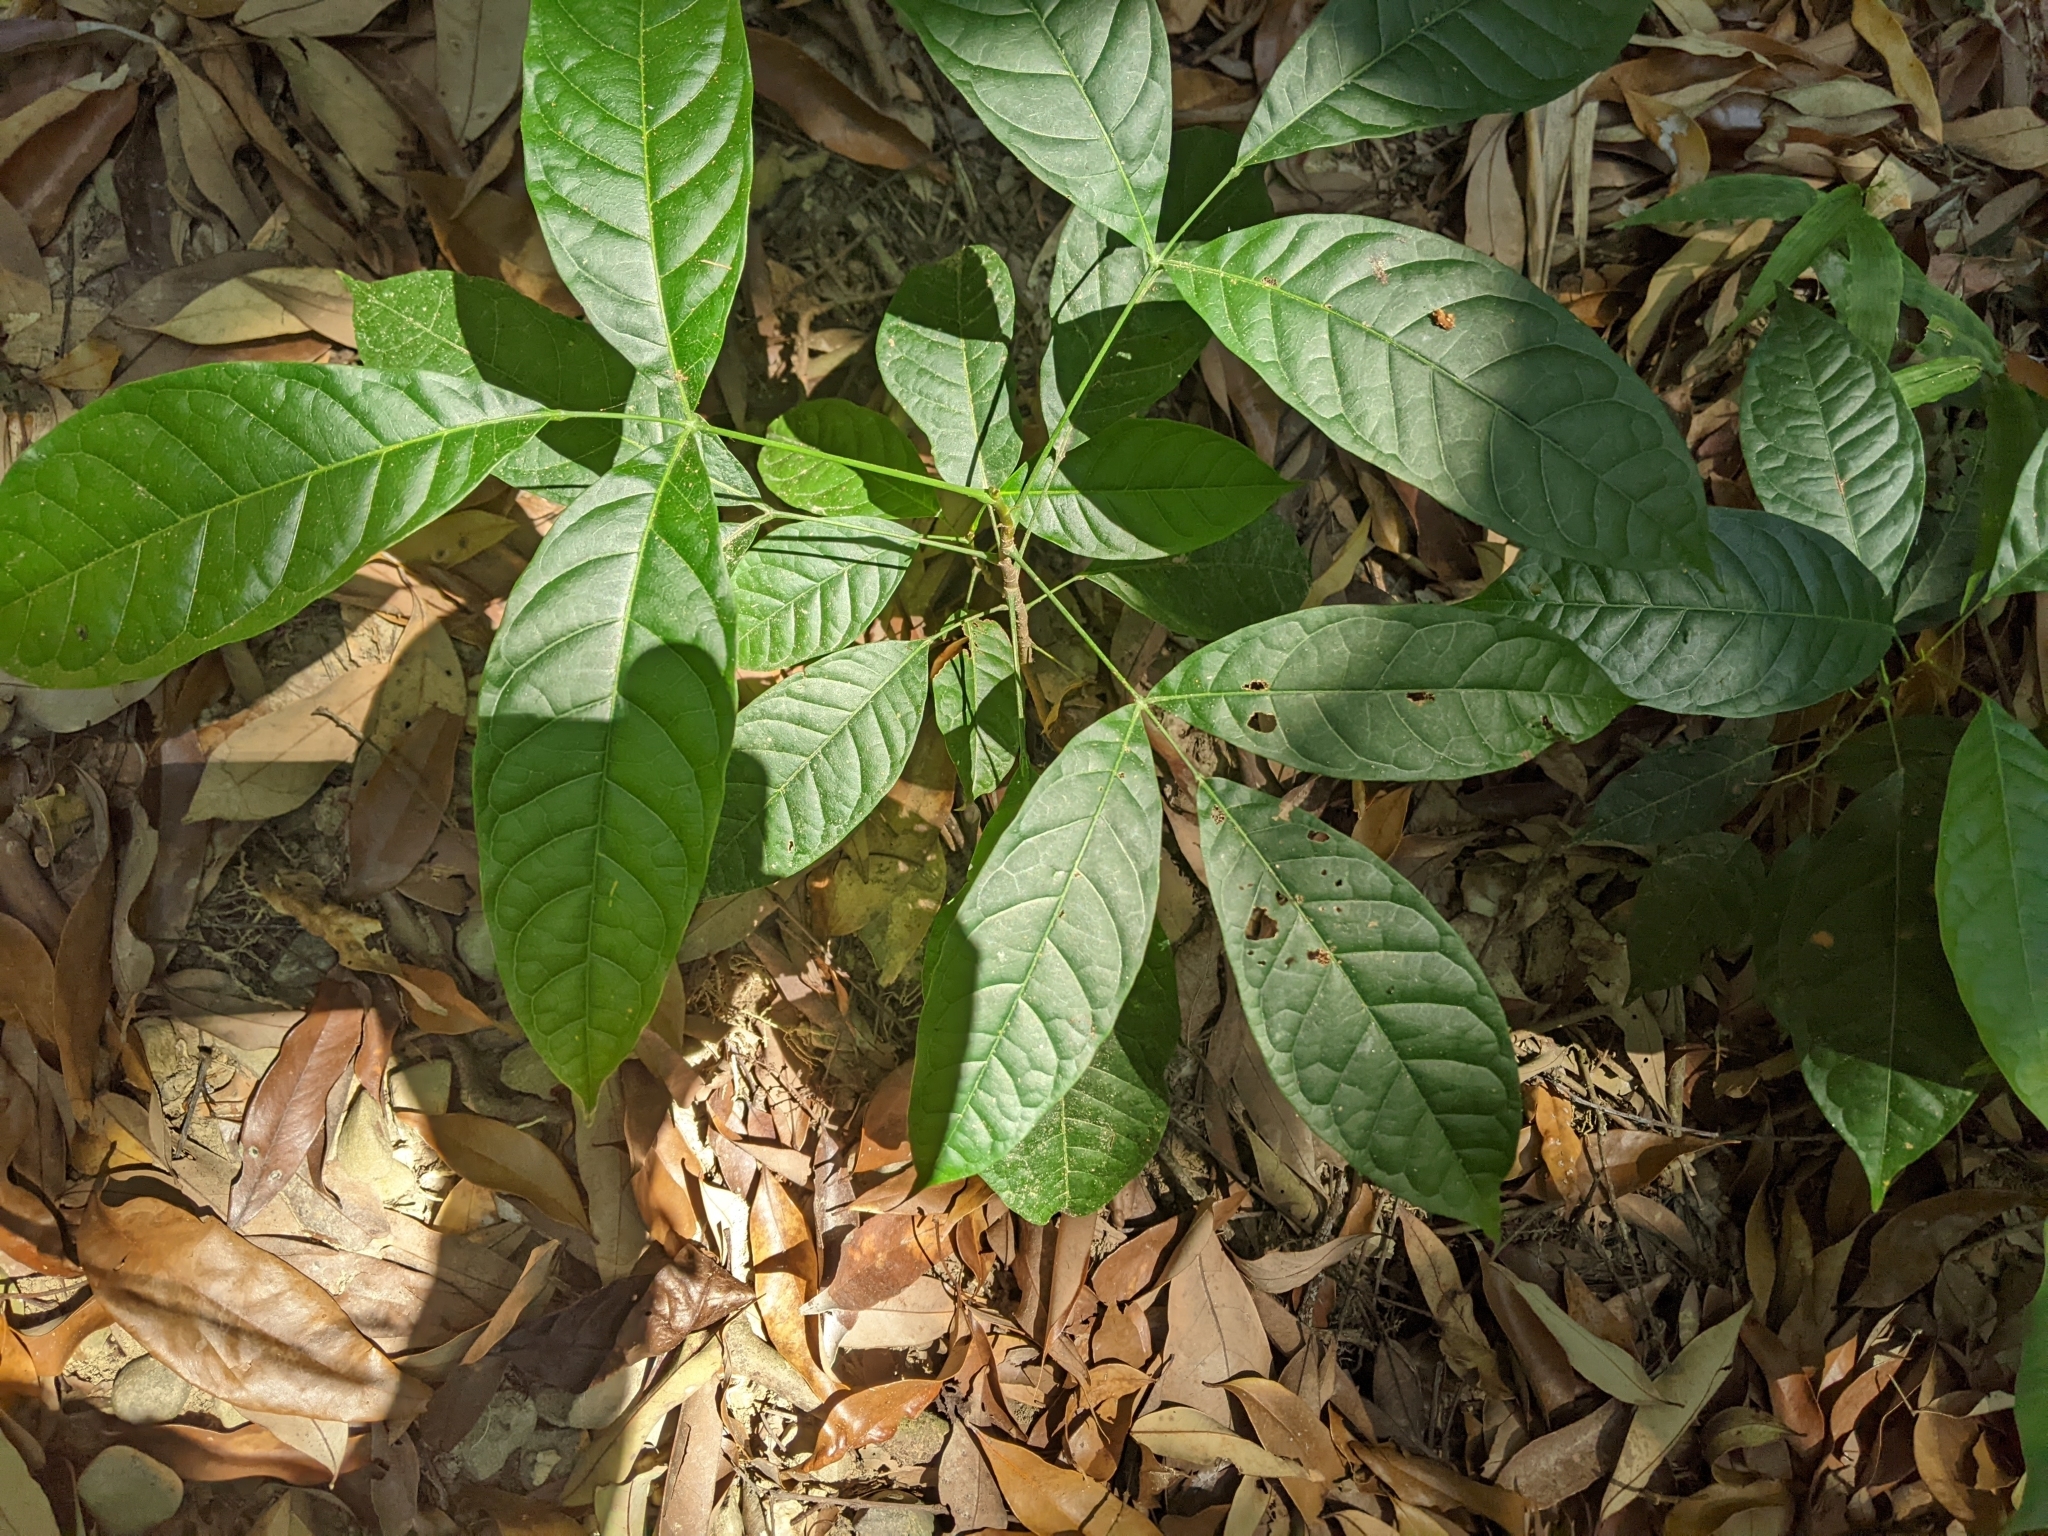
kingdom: Plantae
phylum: Tracheophyta
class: Magnoliopsida
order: Sapindales
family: Meliaceae
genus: Swietenia
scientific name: Swietenia macrophylla
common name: Honduras mahogany
